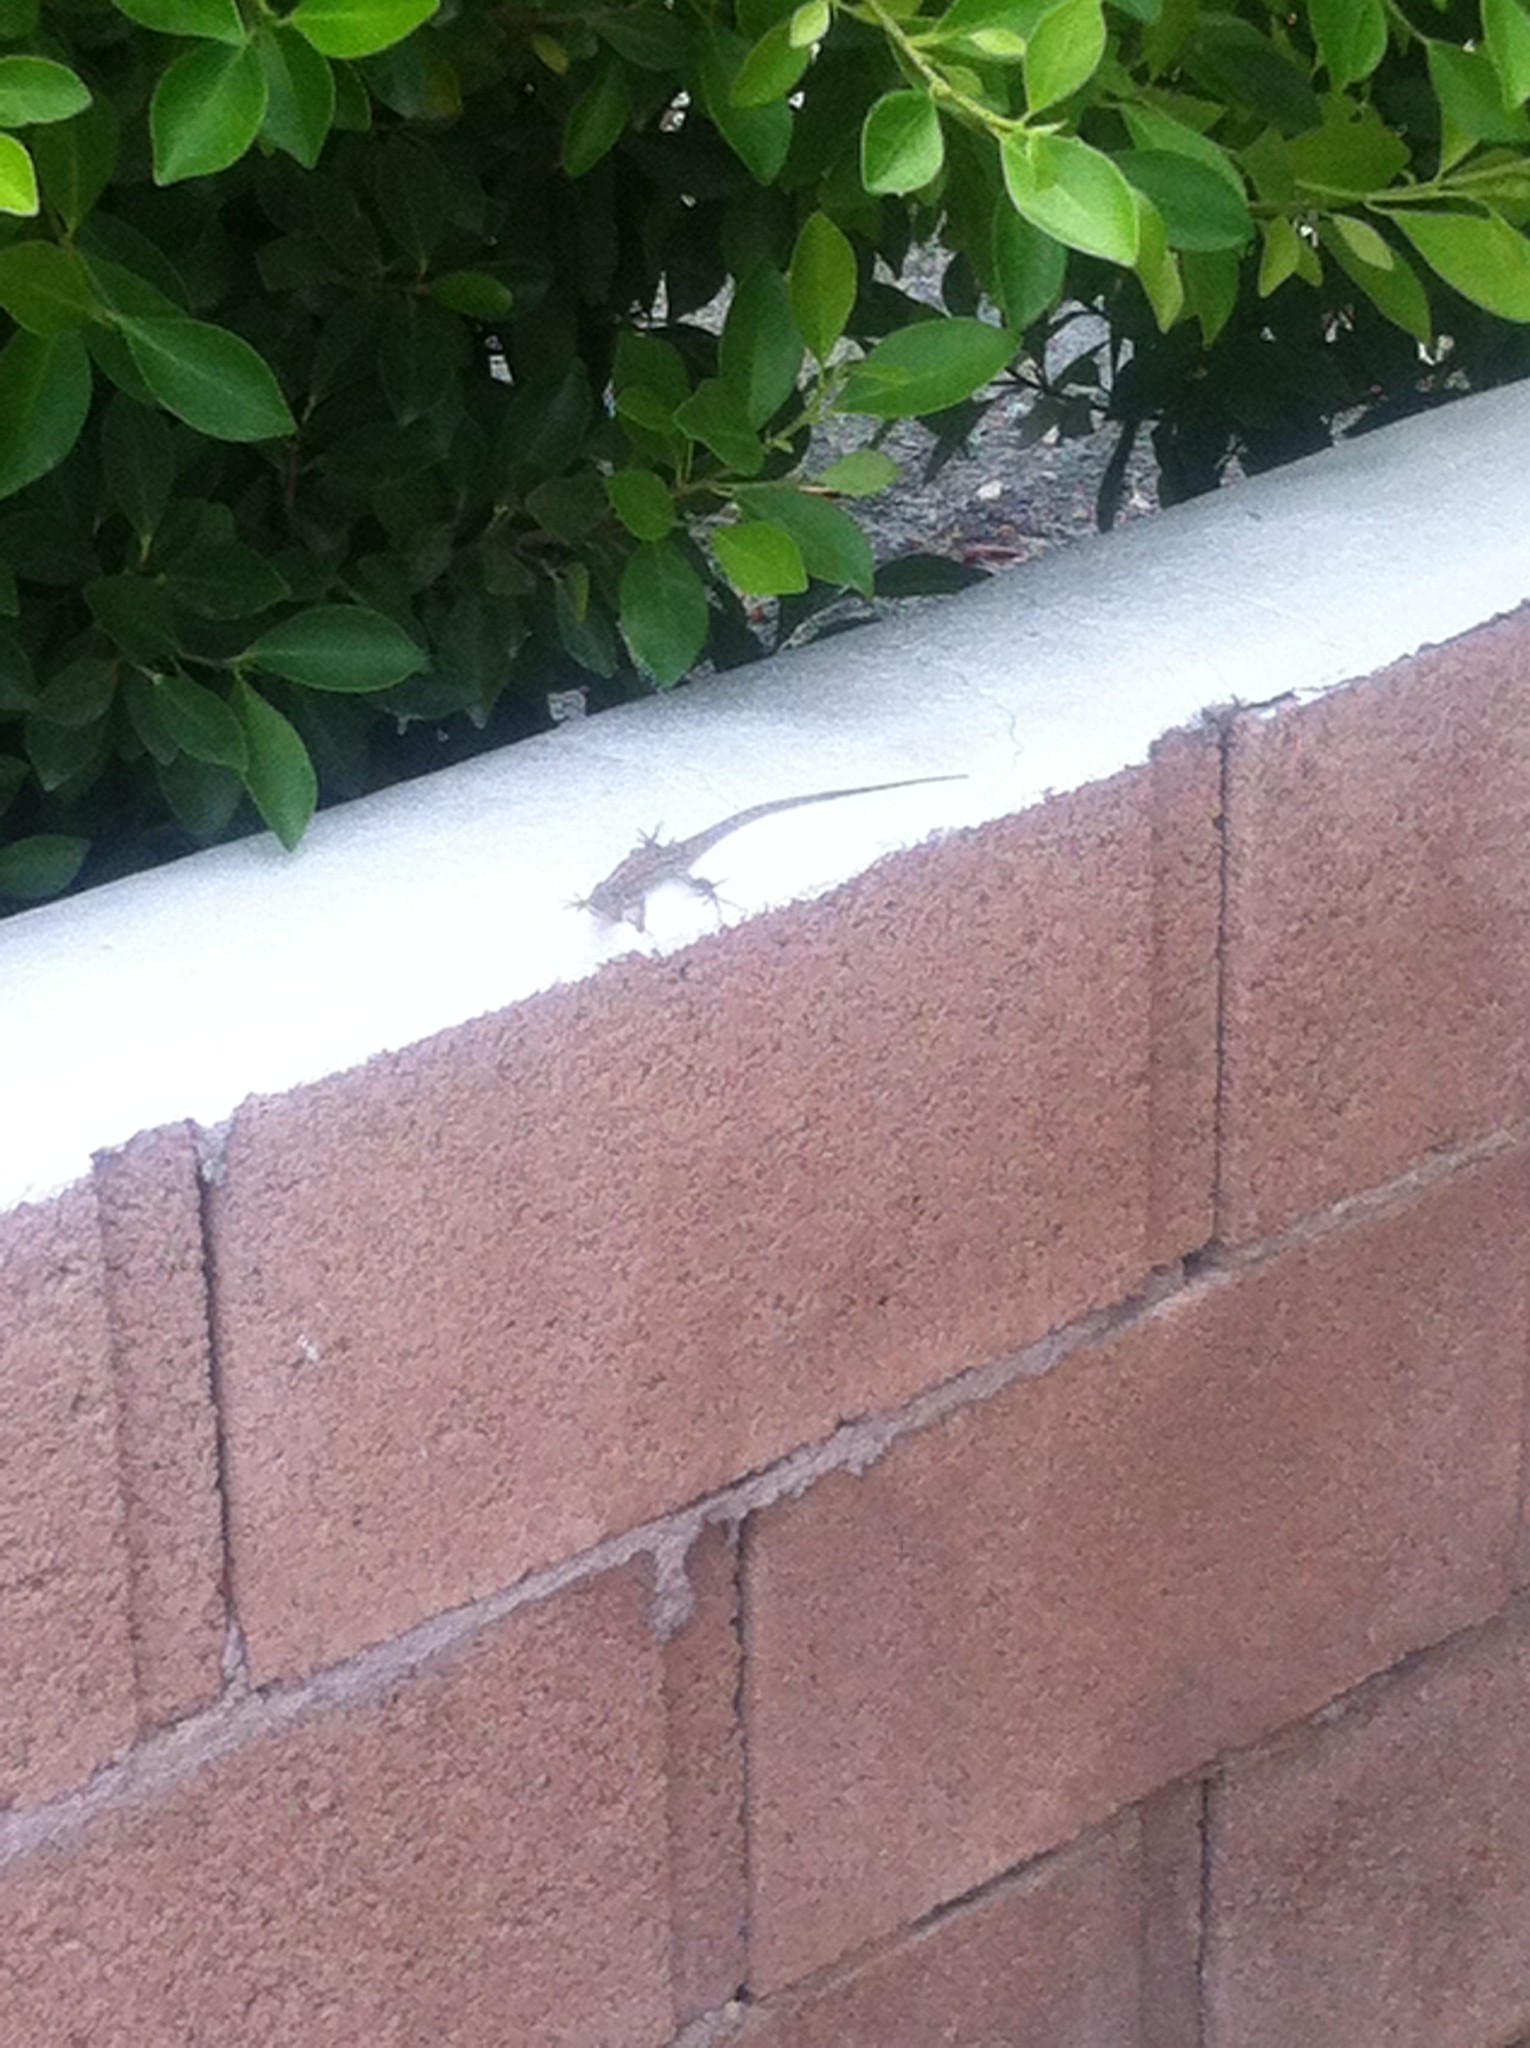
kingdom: Animalia
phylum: Chordata
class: Squamata
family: Phrynosomatidae
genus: Urosaurus
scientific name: Urosaurus graciosus
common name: Long-tailed brush lizard
